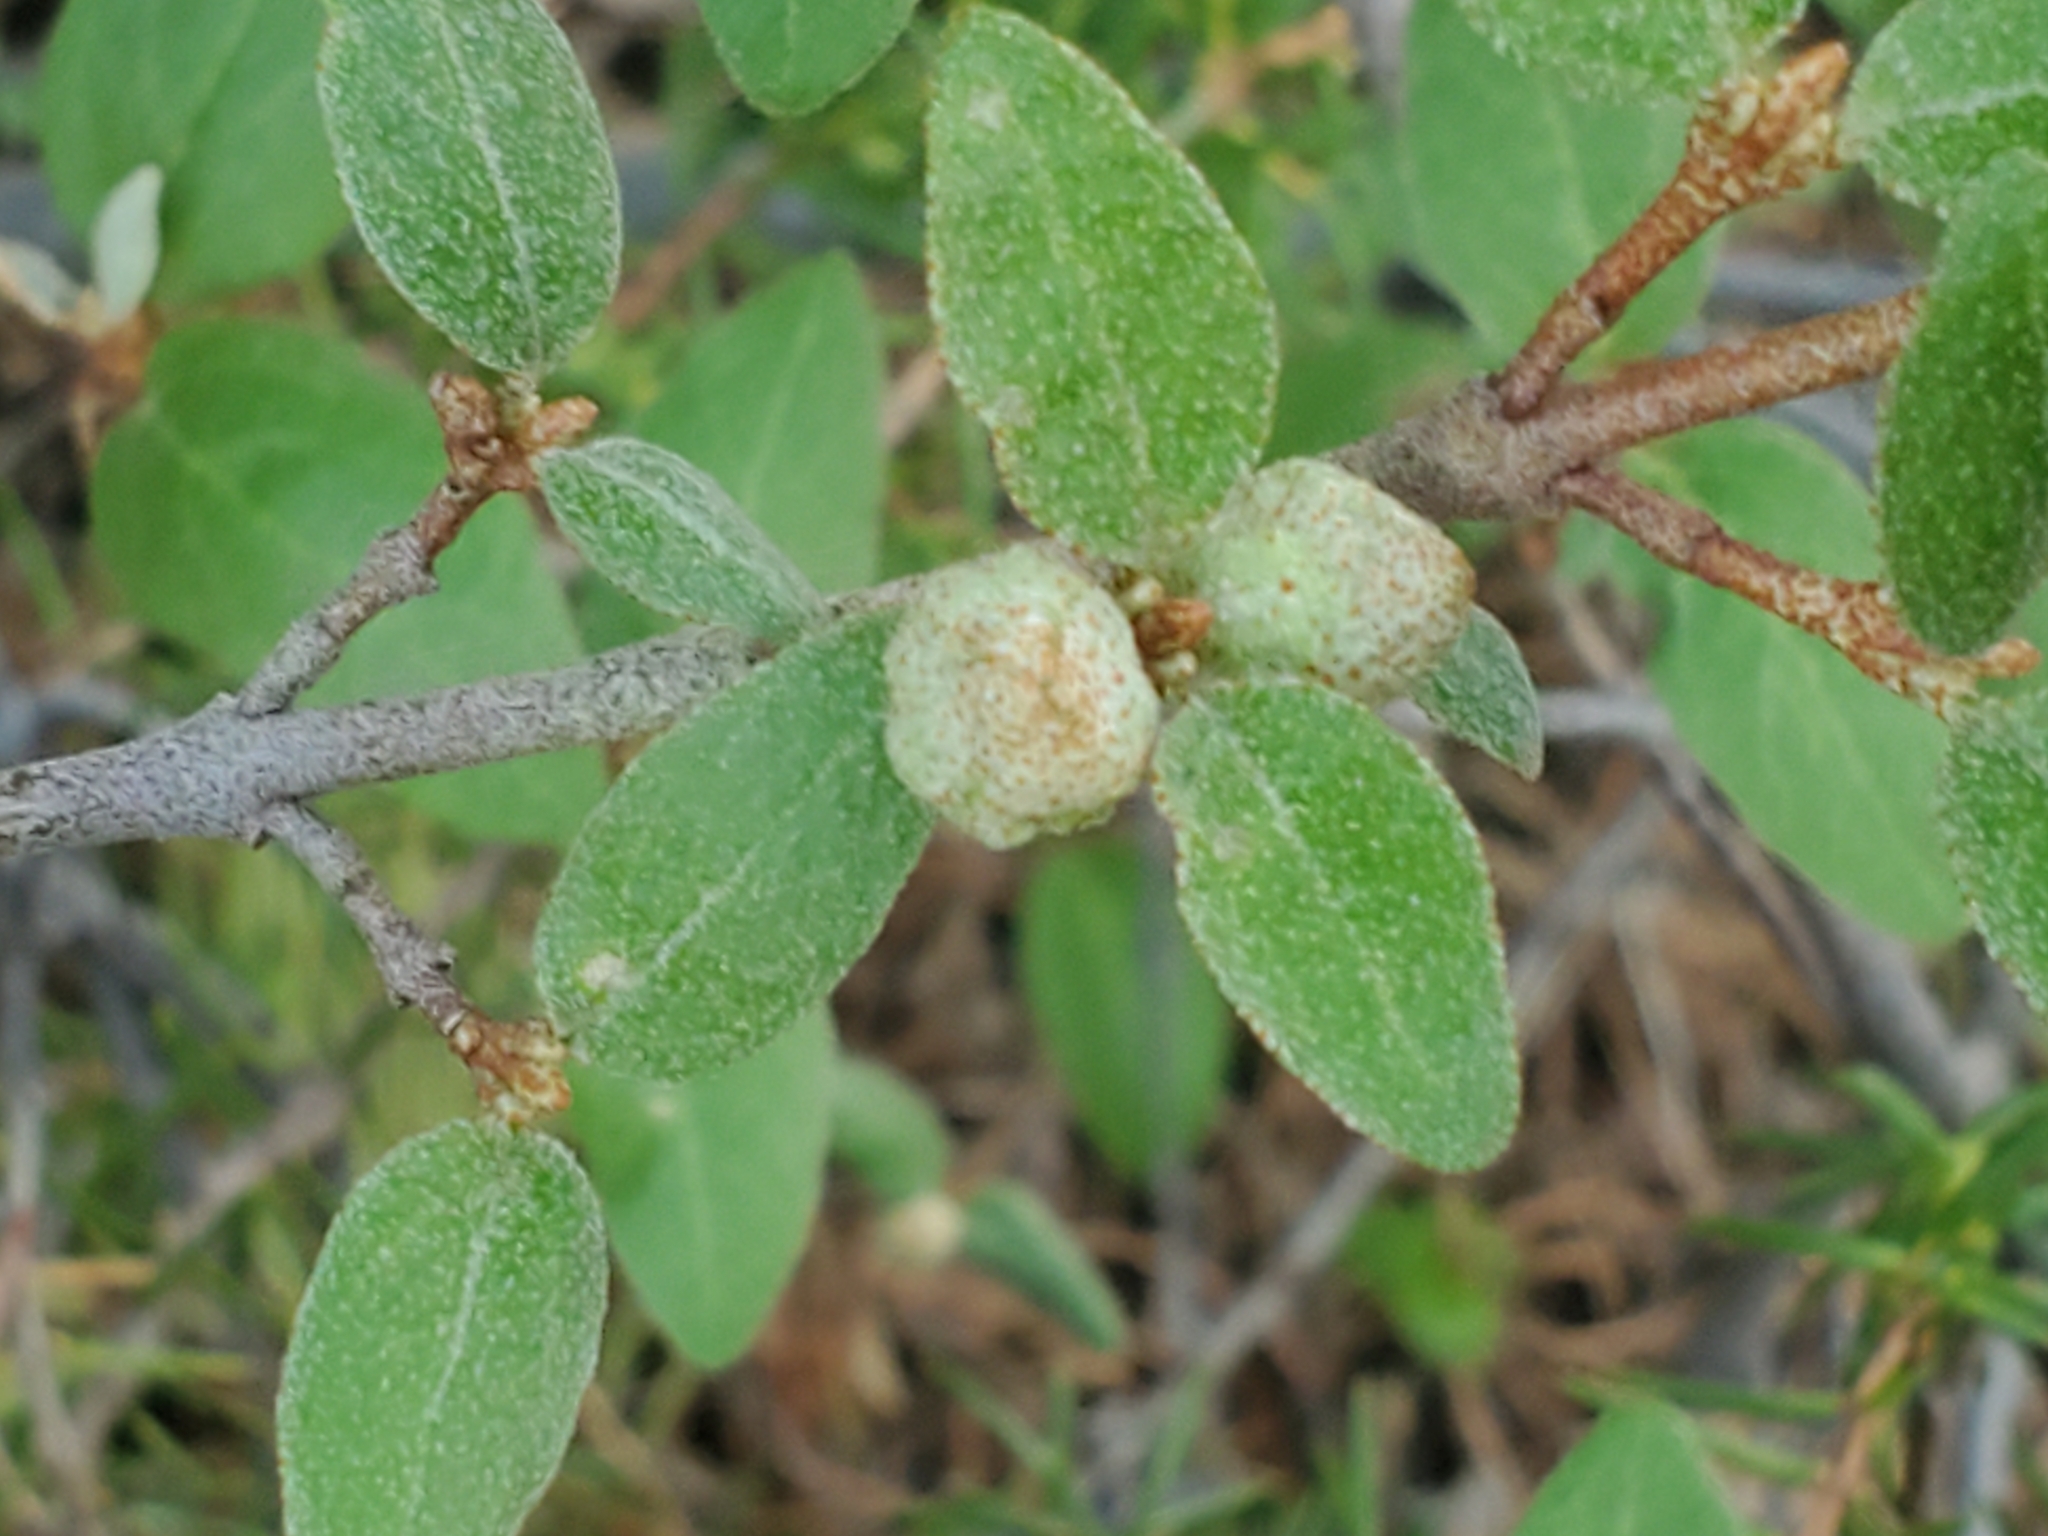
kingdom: Plantae
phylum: Tracheophyta
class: Magnoliopsida
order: Rosales
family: Elaeagnaceae
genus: Shepherdia
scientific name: Shepherdia canadensis
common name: Soapberry
